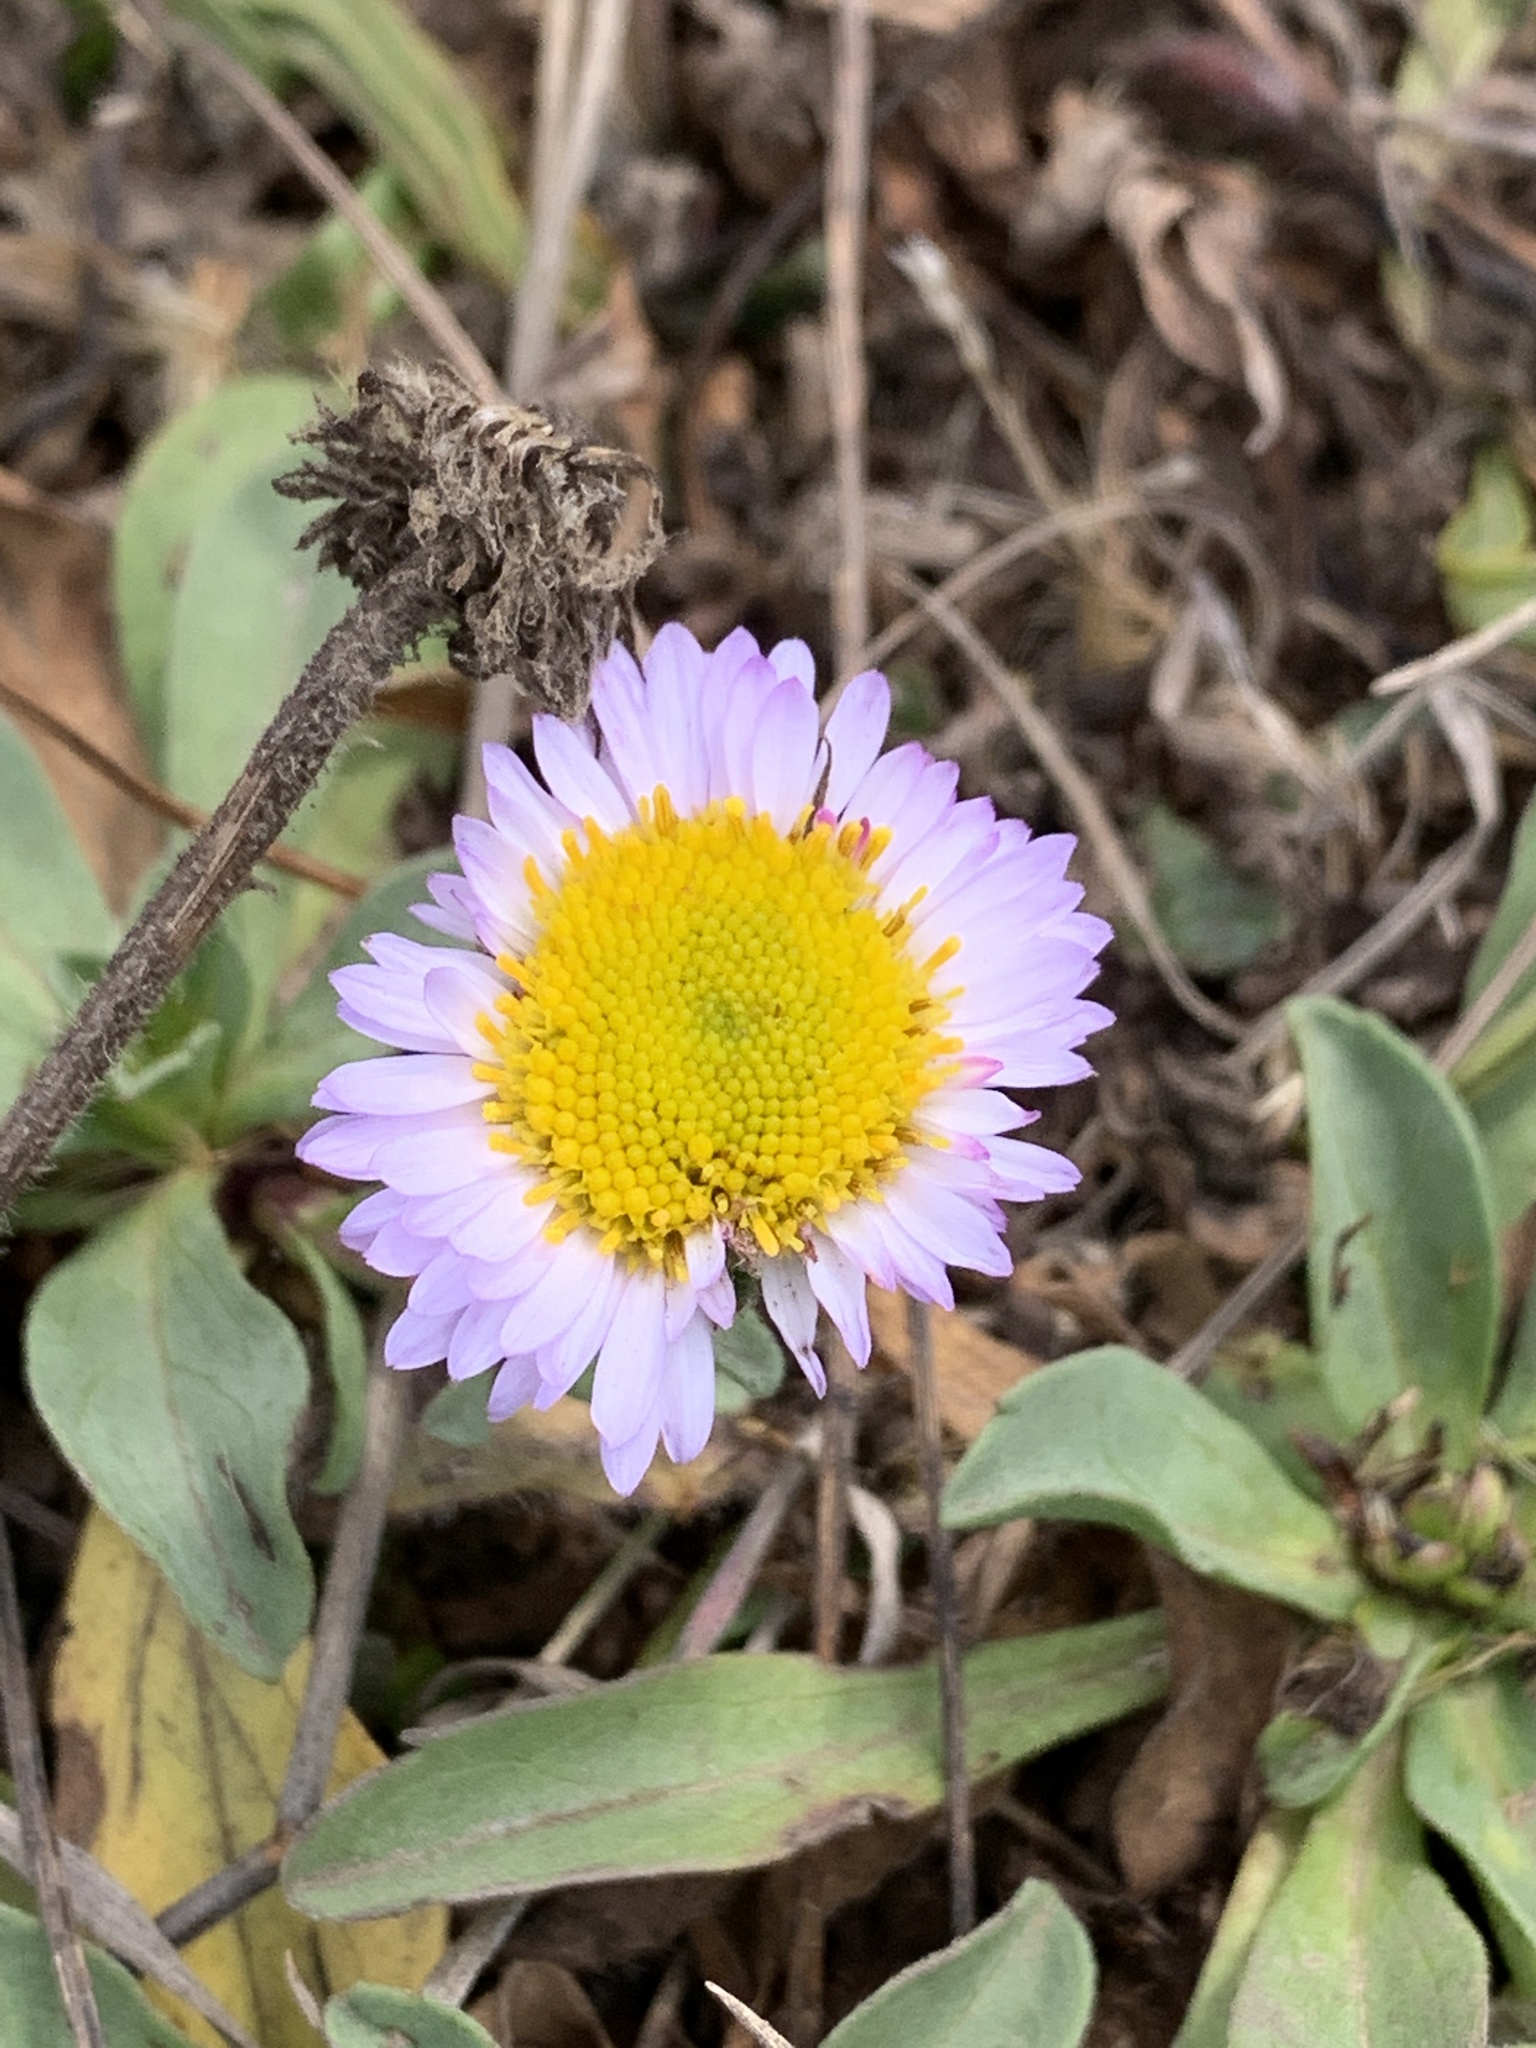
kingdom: Plantae
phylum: Tracheophyta
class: Magnoliopsida
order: Asterales
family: Asteraceae
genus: Erigeron
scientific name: Erigeron glaucus
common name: Seaside daisy
